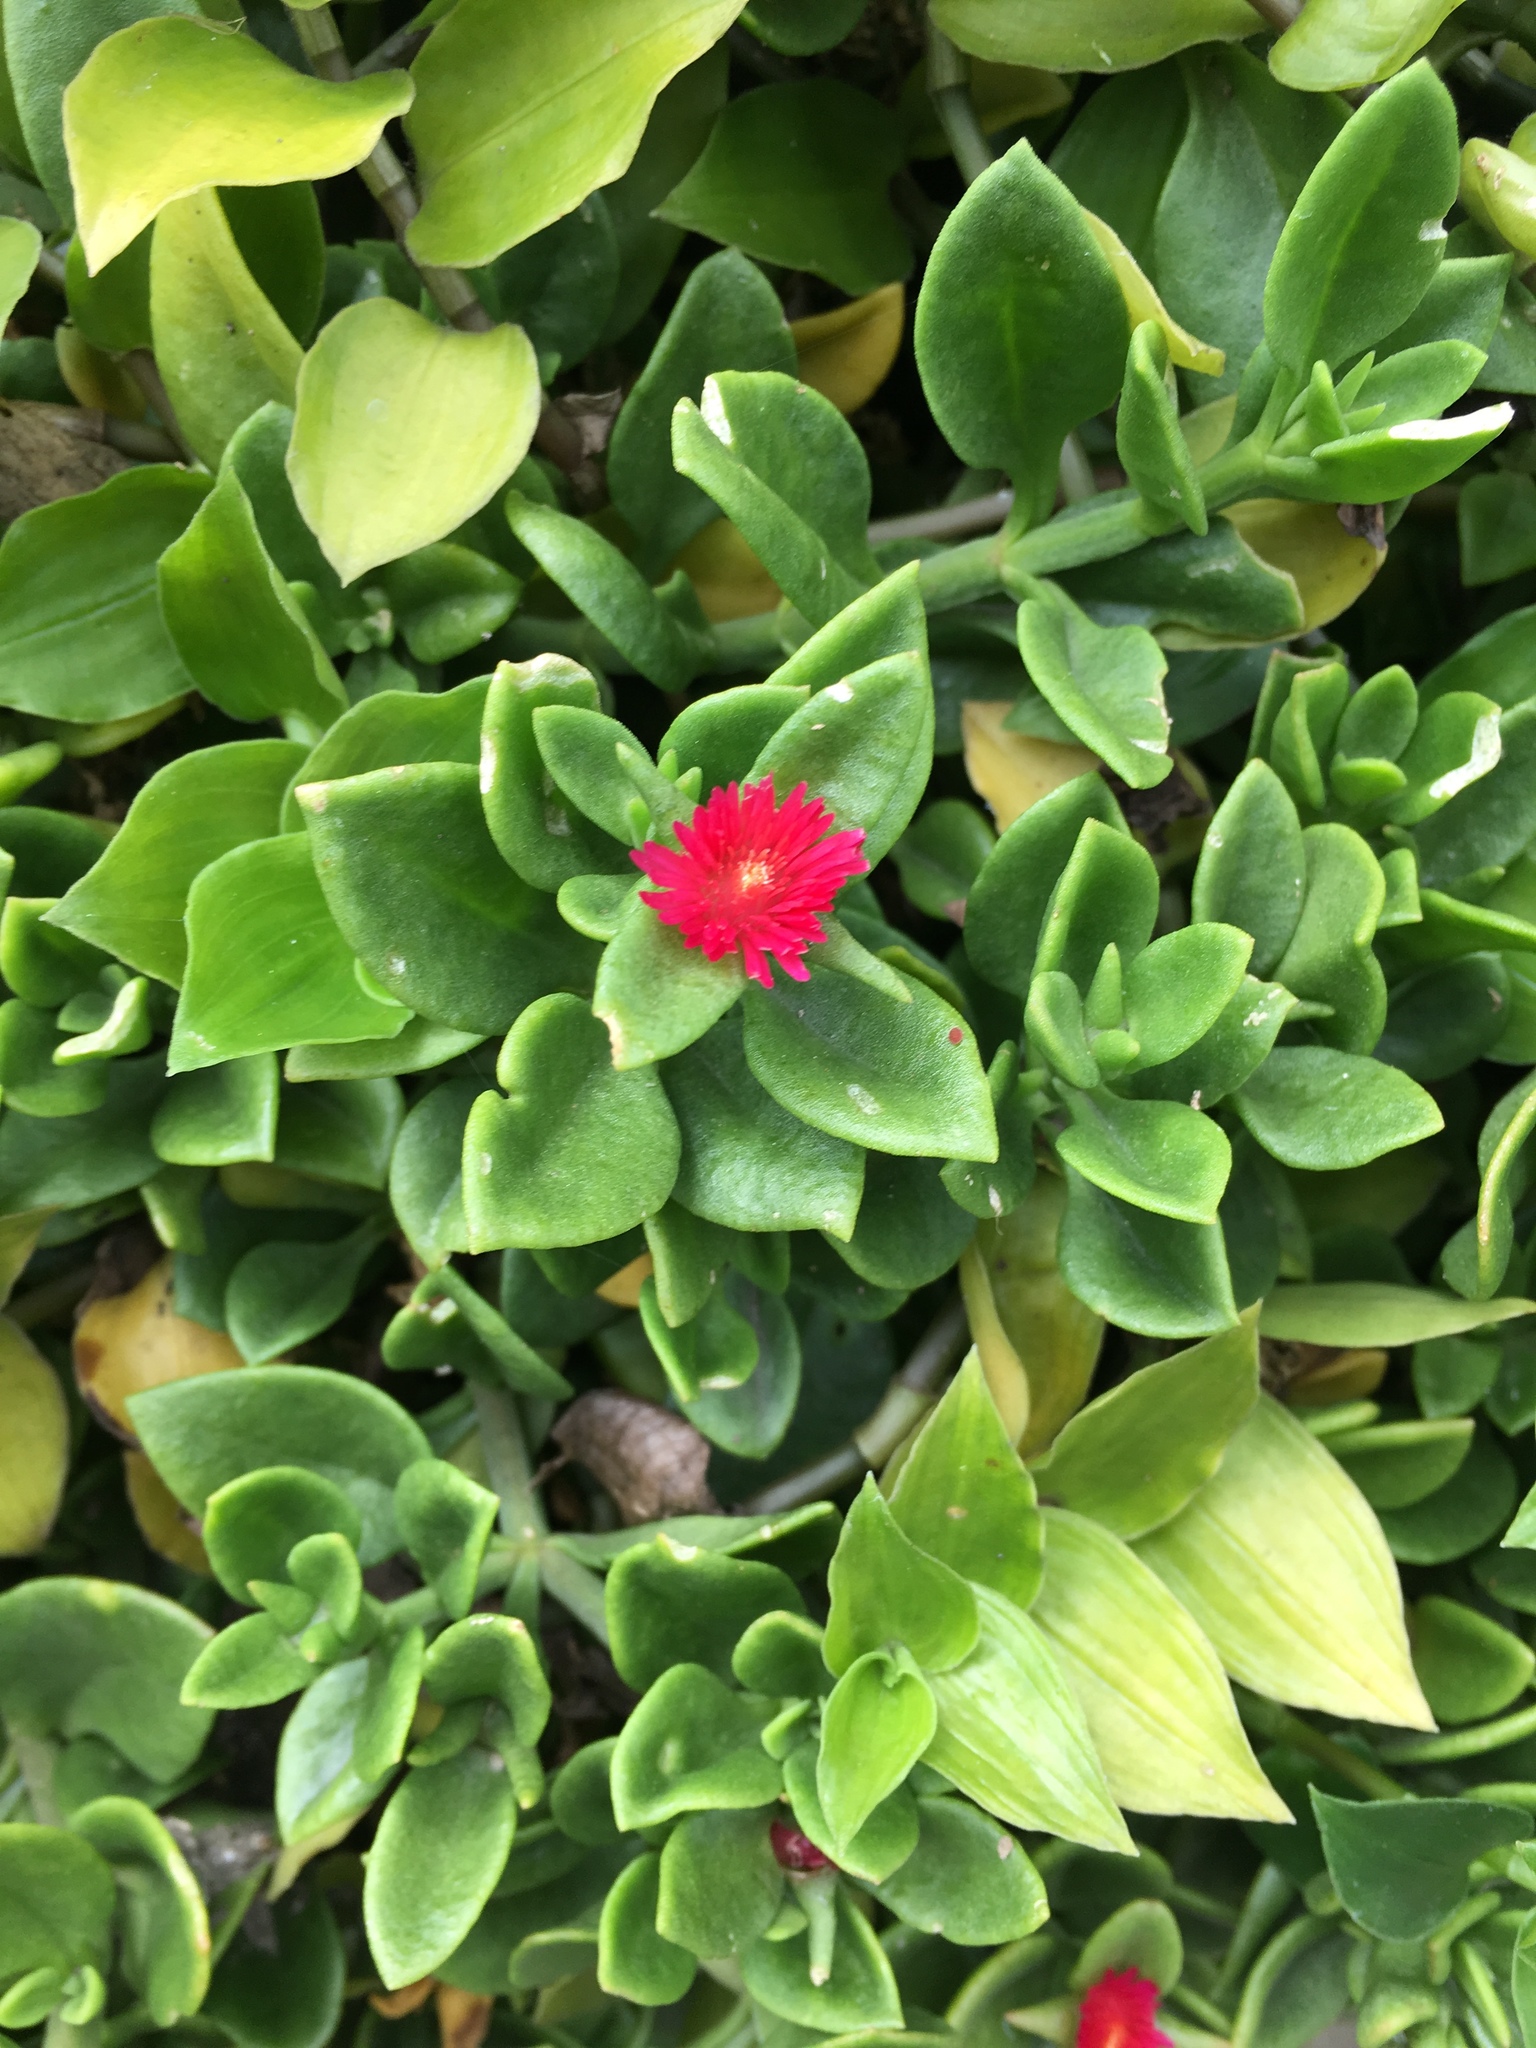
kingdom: Plantae
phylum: Tracheophyta
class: Magnoliopsida
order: Caryophyllales
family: Aizoaceae
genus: Mesembryanthemum
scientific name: Mesembryanthemum cordifolium
